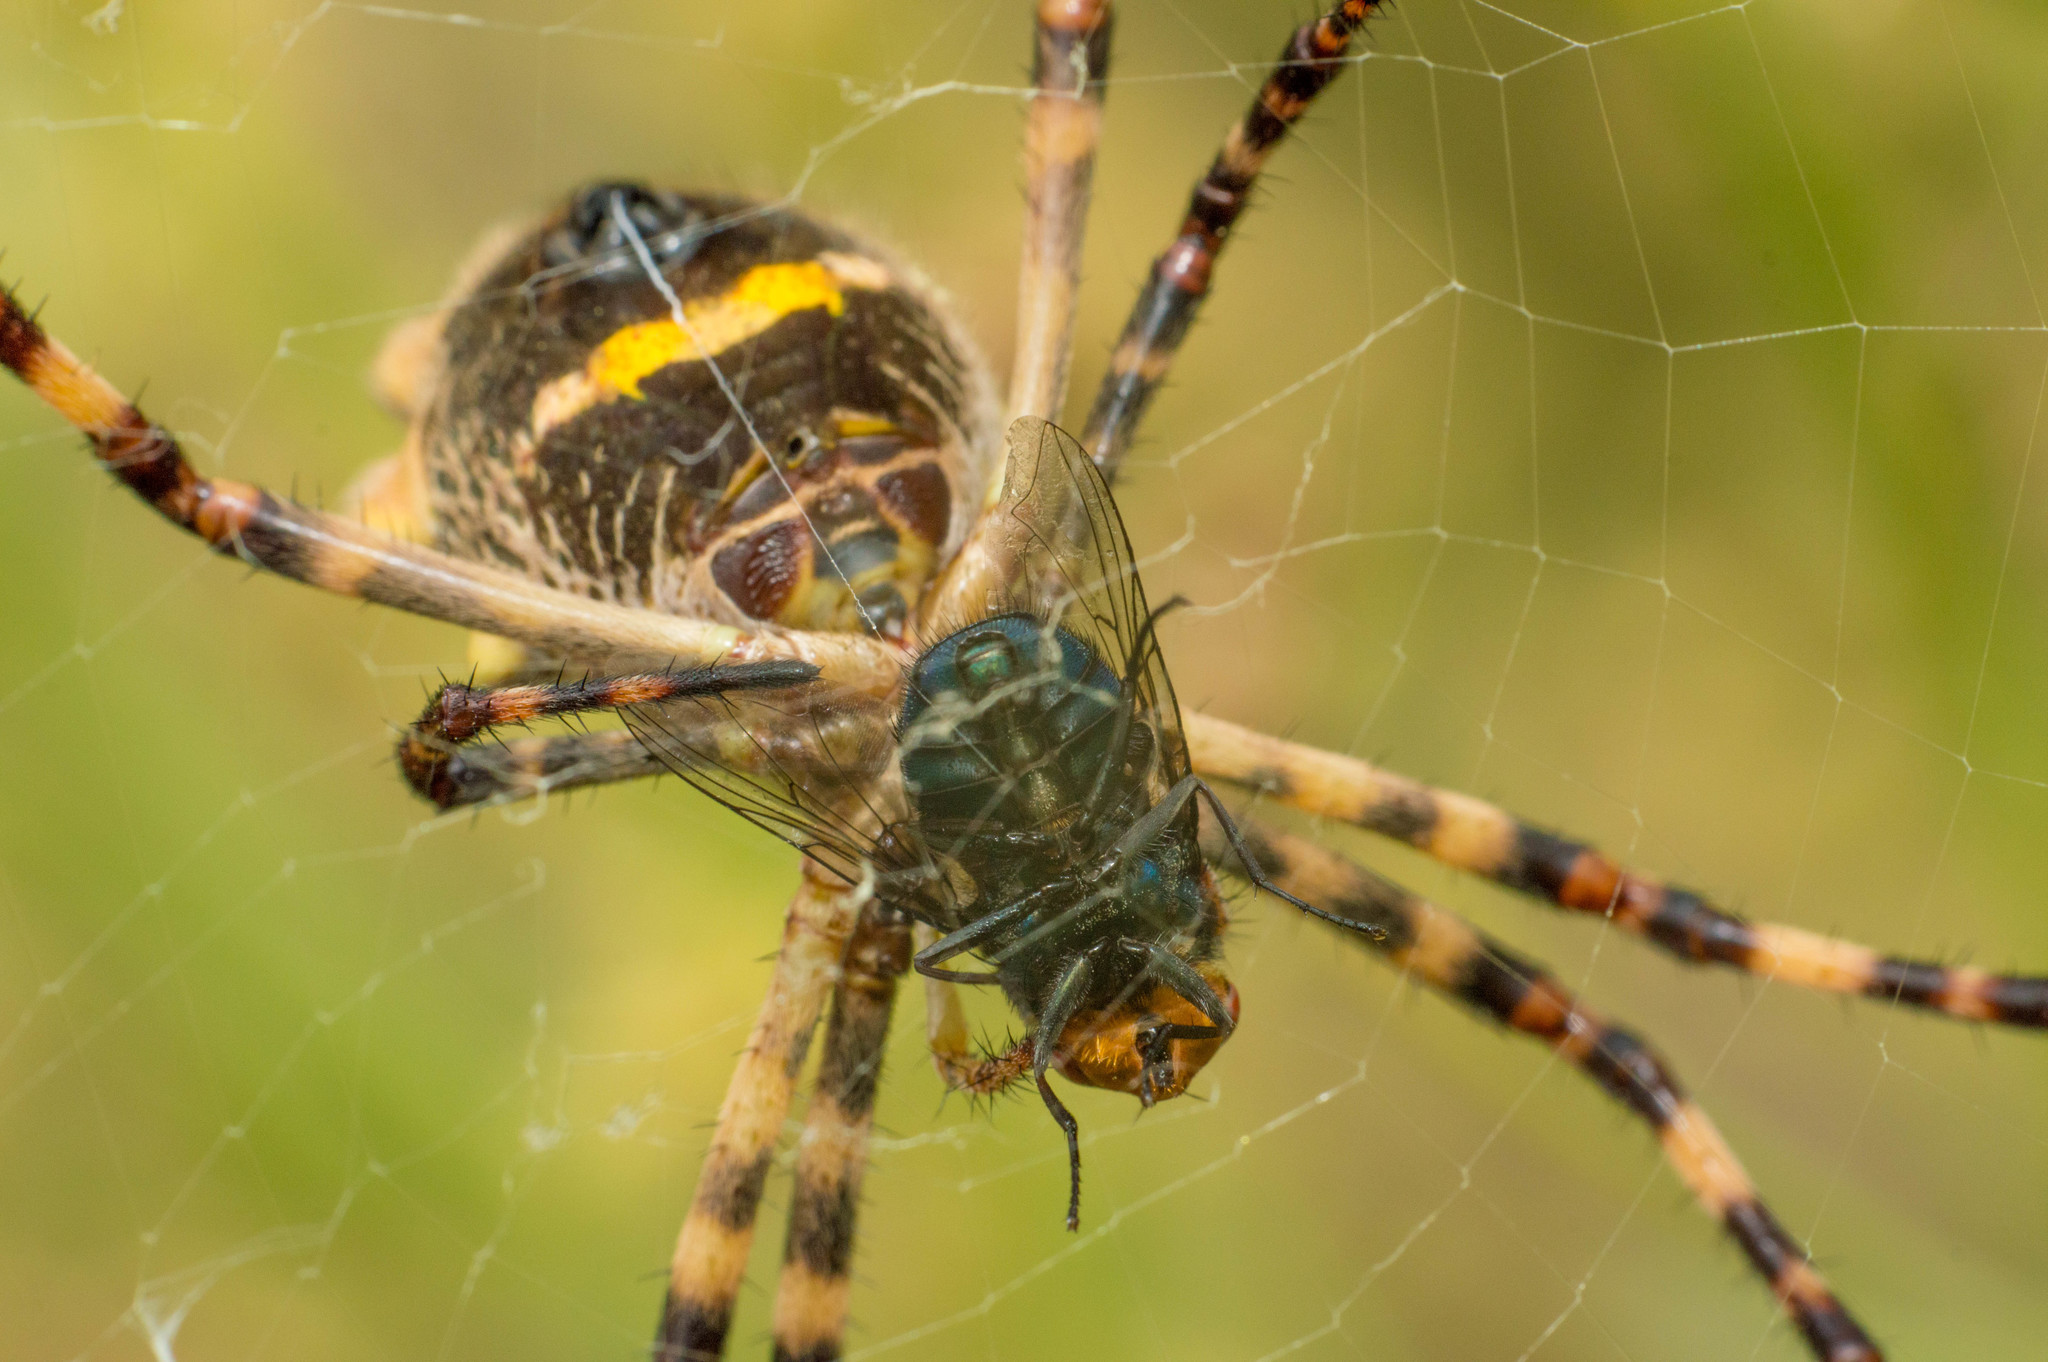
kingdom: Animalia
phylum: Arthropoda
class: Arachnida
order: Araneae
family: Araneidae
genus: Argiope
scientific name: Argiope argentata
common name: Orb weavers
